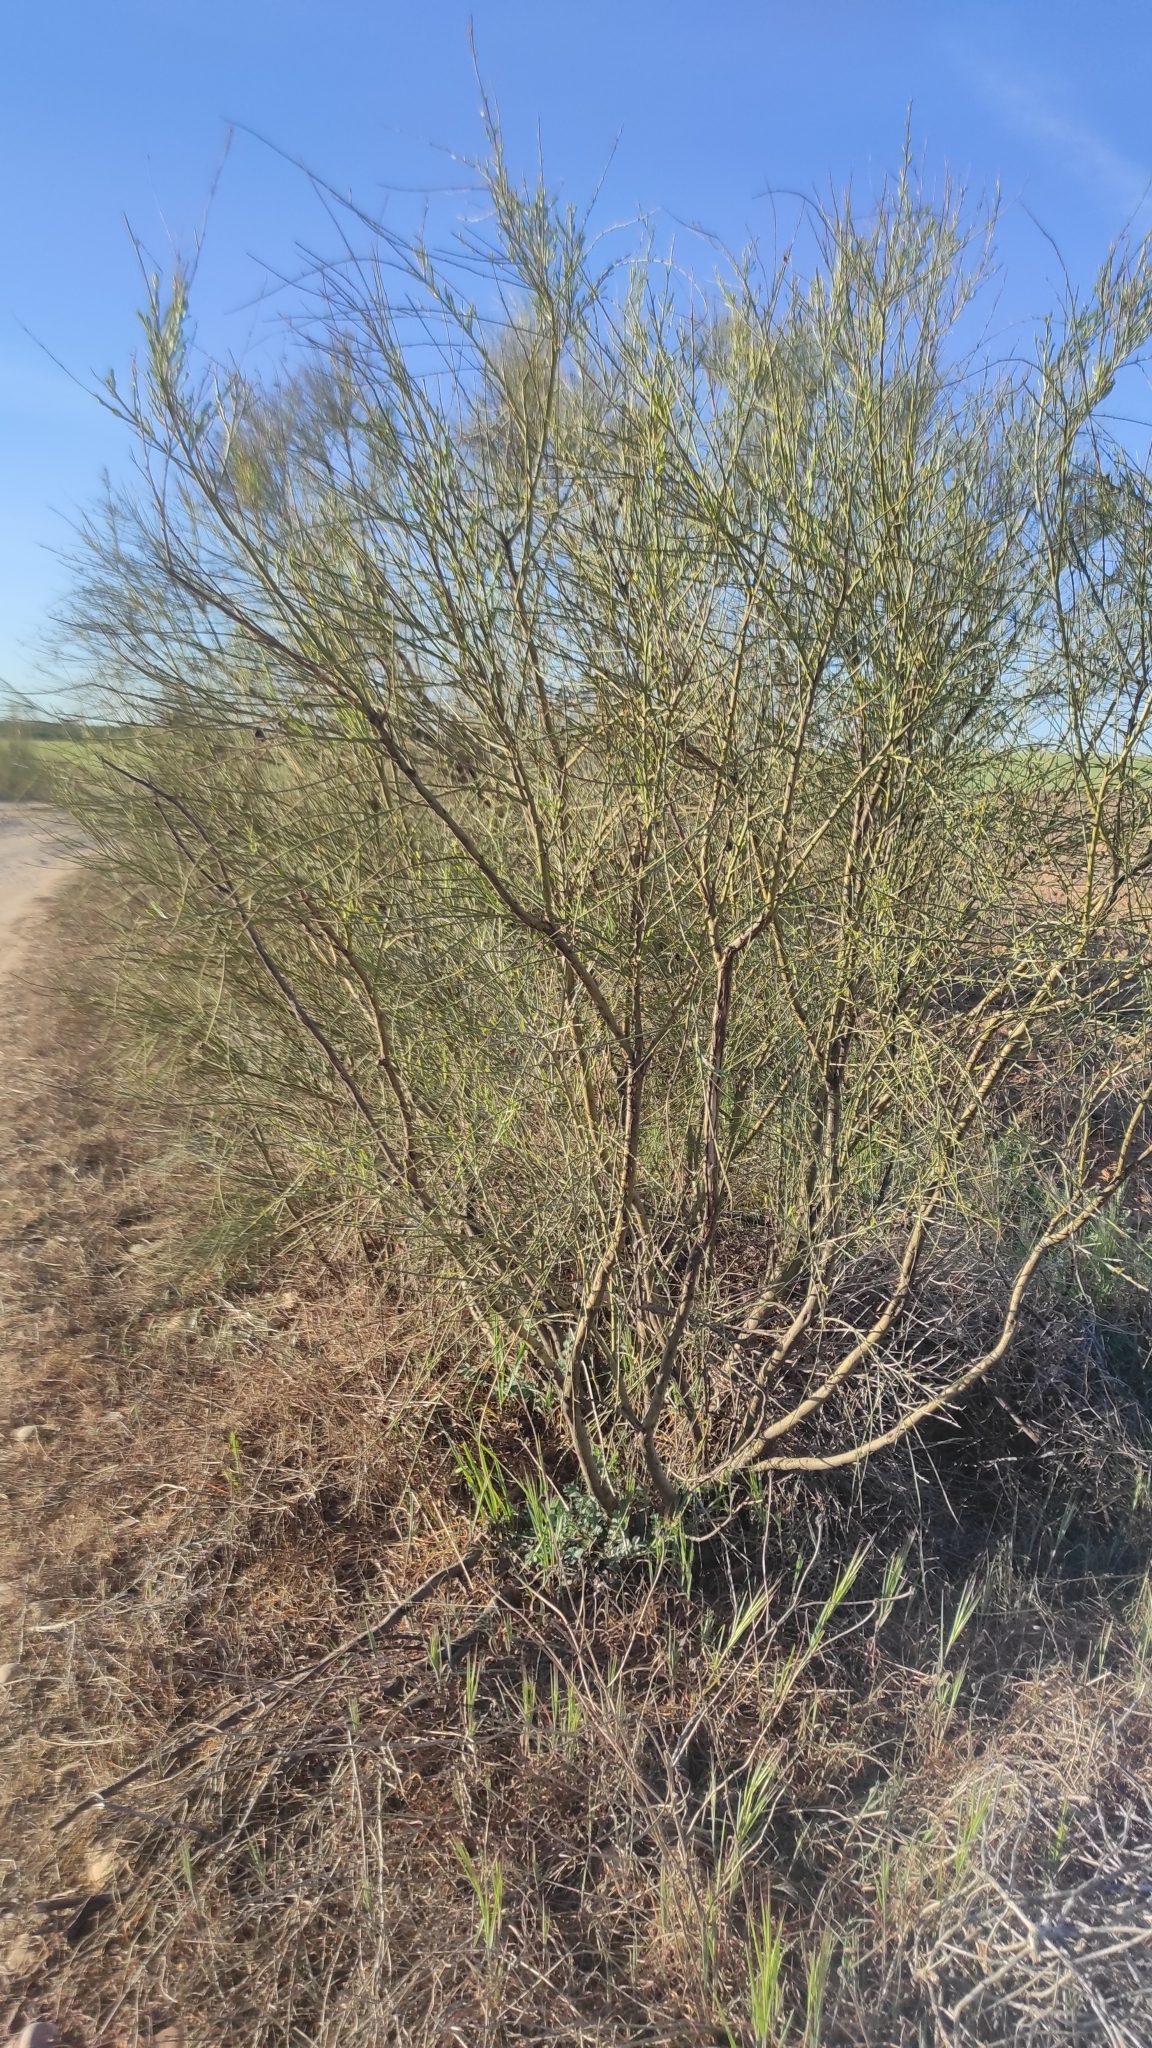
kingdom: Plantae
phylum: Tracheophyta
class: Magnoliopsida
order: Fabales
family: Fabaceae
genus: Retama
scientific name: Retama sphaerocarpa
